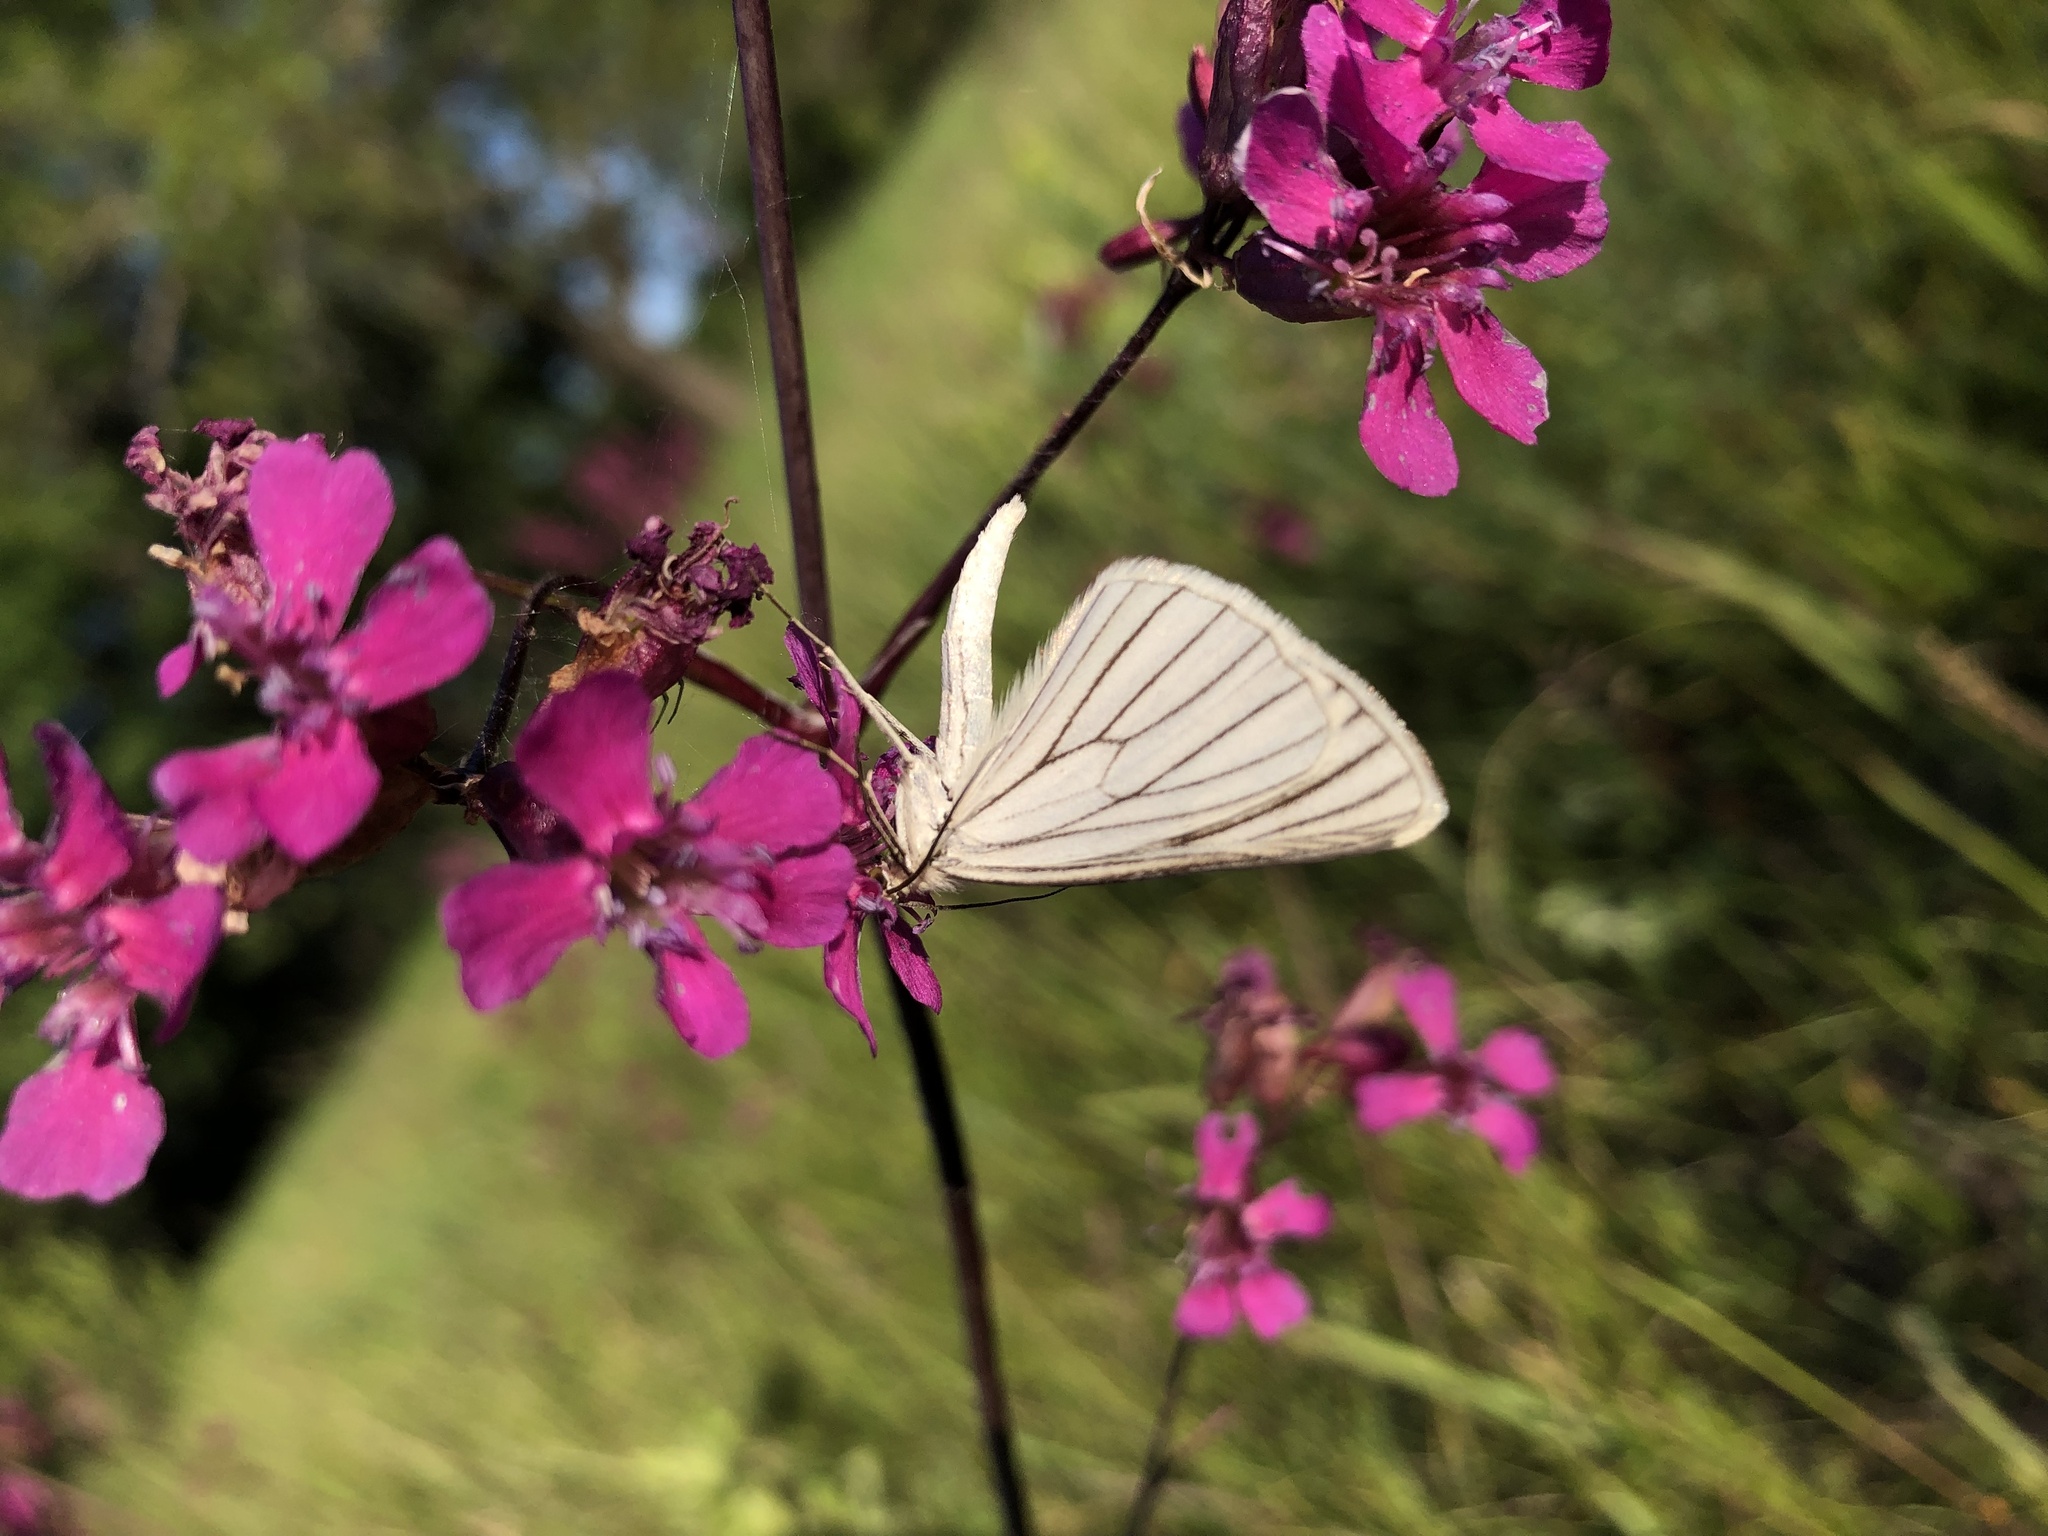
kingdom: Animalia
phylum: Arthropoda
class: Insecta
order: Lepidoptera
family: Geometridae
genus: Siona
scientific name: Siona lineata
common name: Black-veined moth
